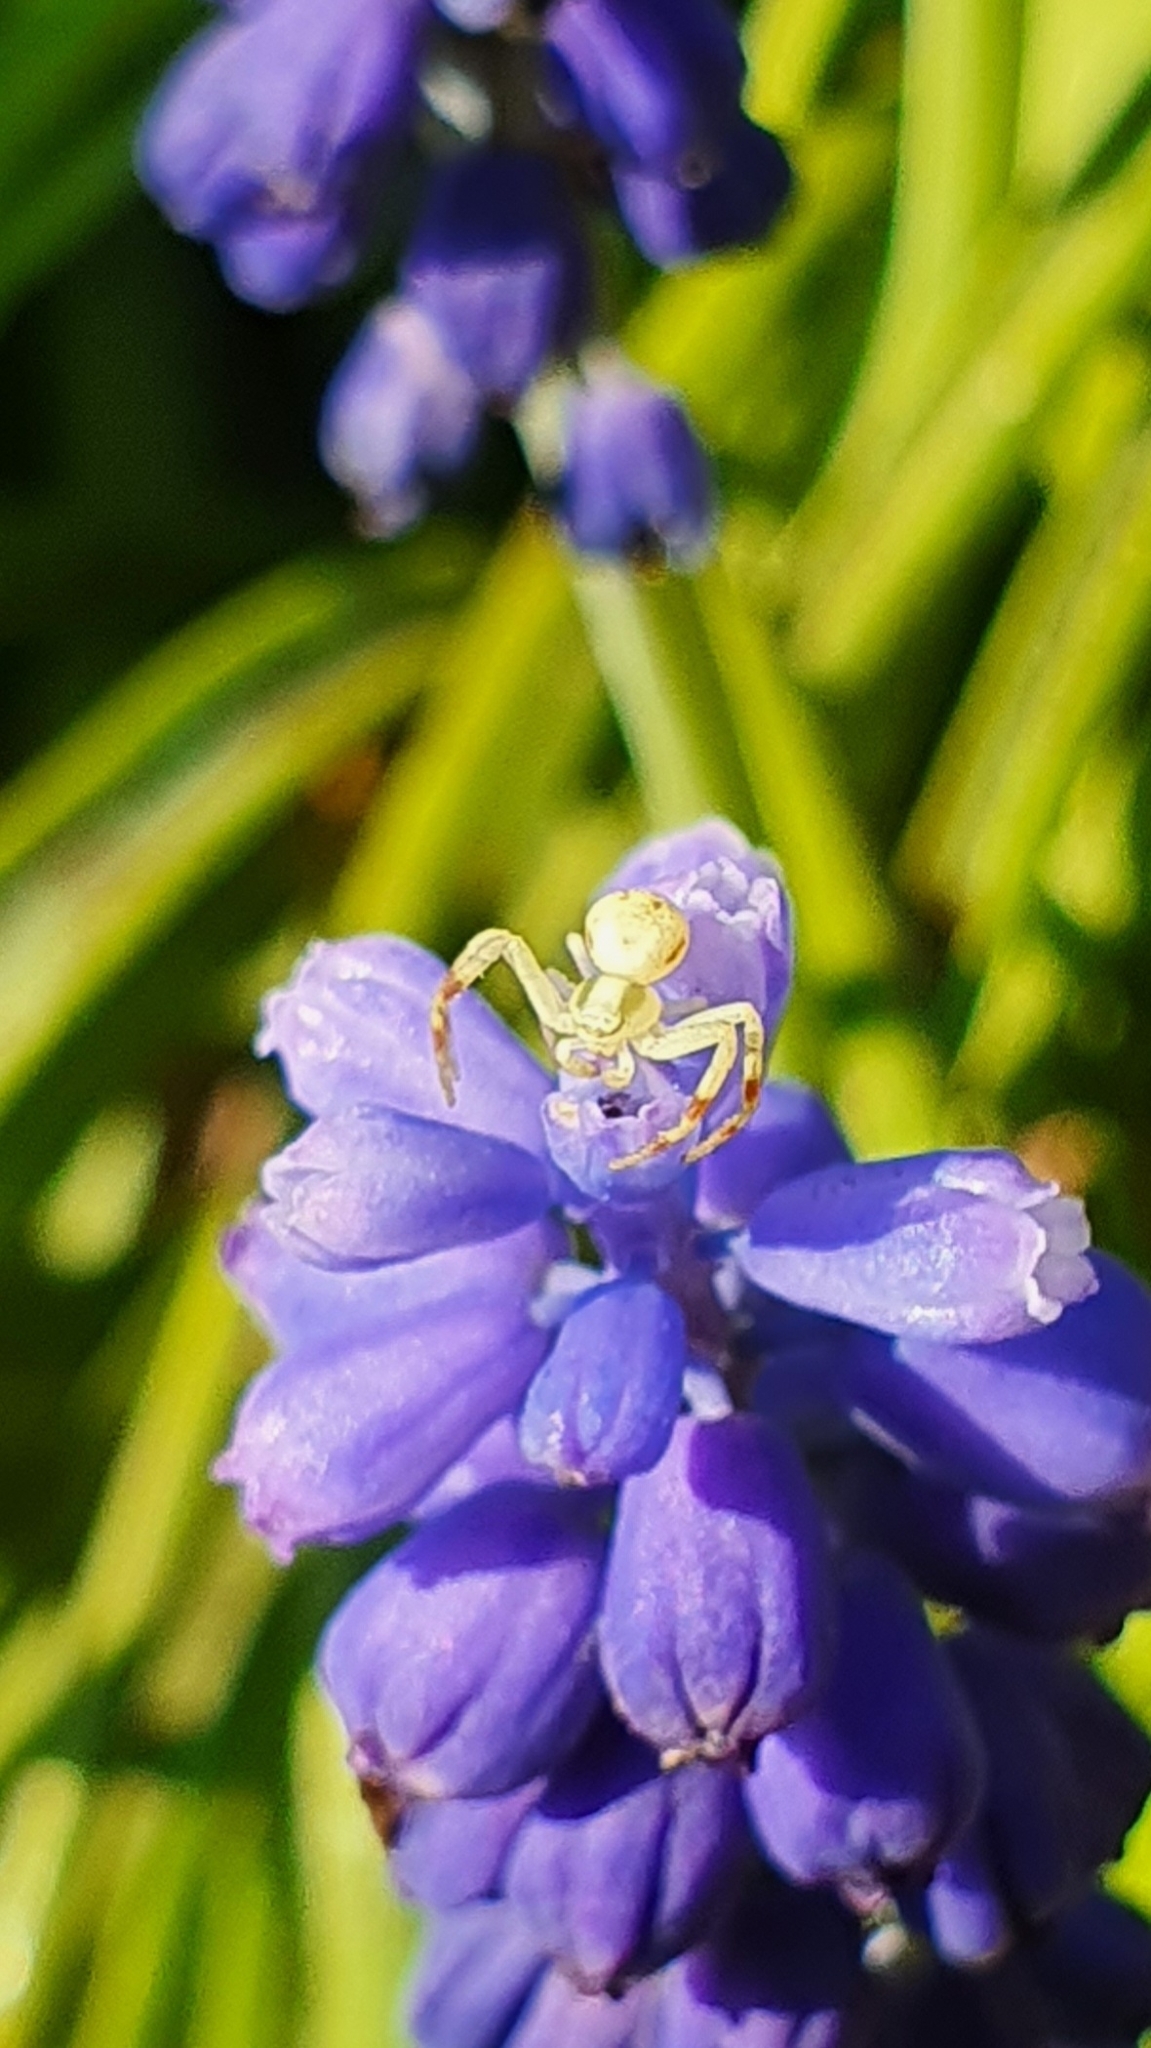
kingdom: Animalia
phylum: Arthropoda
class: Arachnida
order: Araneae
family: Thomisidae
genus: Misumena
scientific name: Misumena vatia
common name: Goldenrod crab spider
